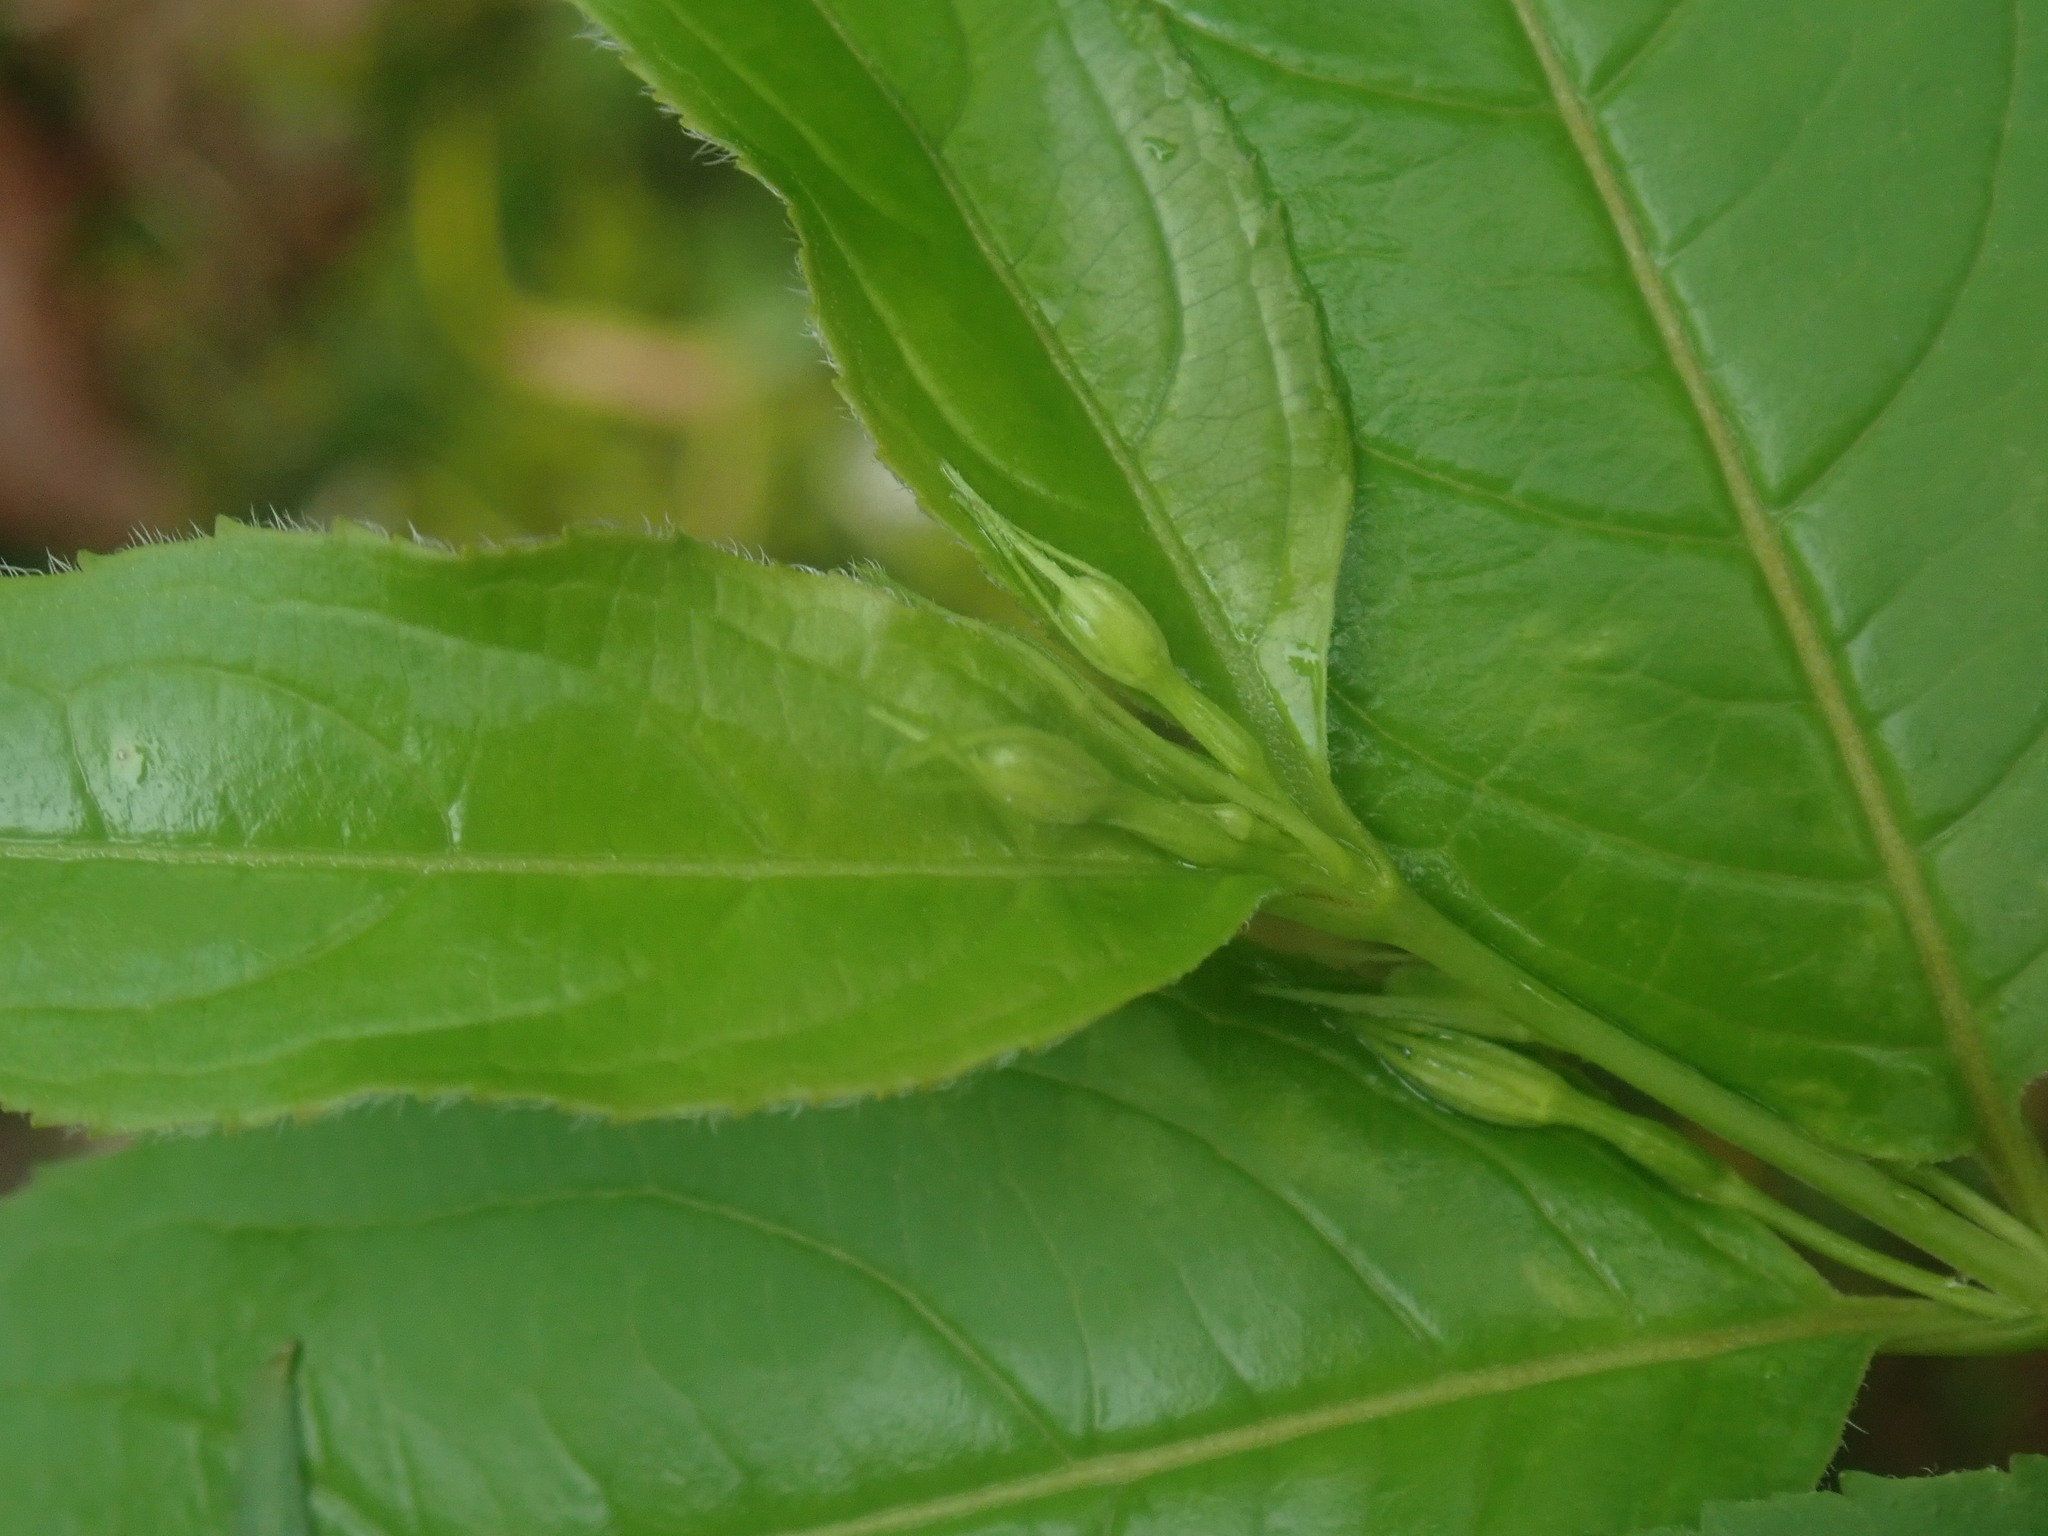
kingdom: Plantae
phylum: Tracheophyta
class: Magnoliopsida
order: Dipsacales
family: Caprifoliaceae
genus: Diervilla
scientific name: Diervilla lonicera
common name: Bush-honeysuckle
